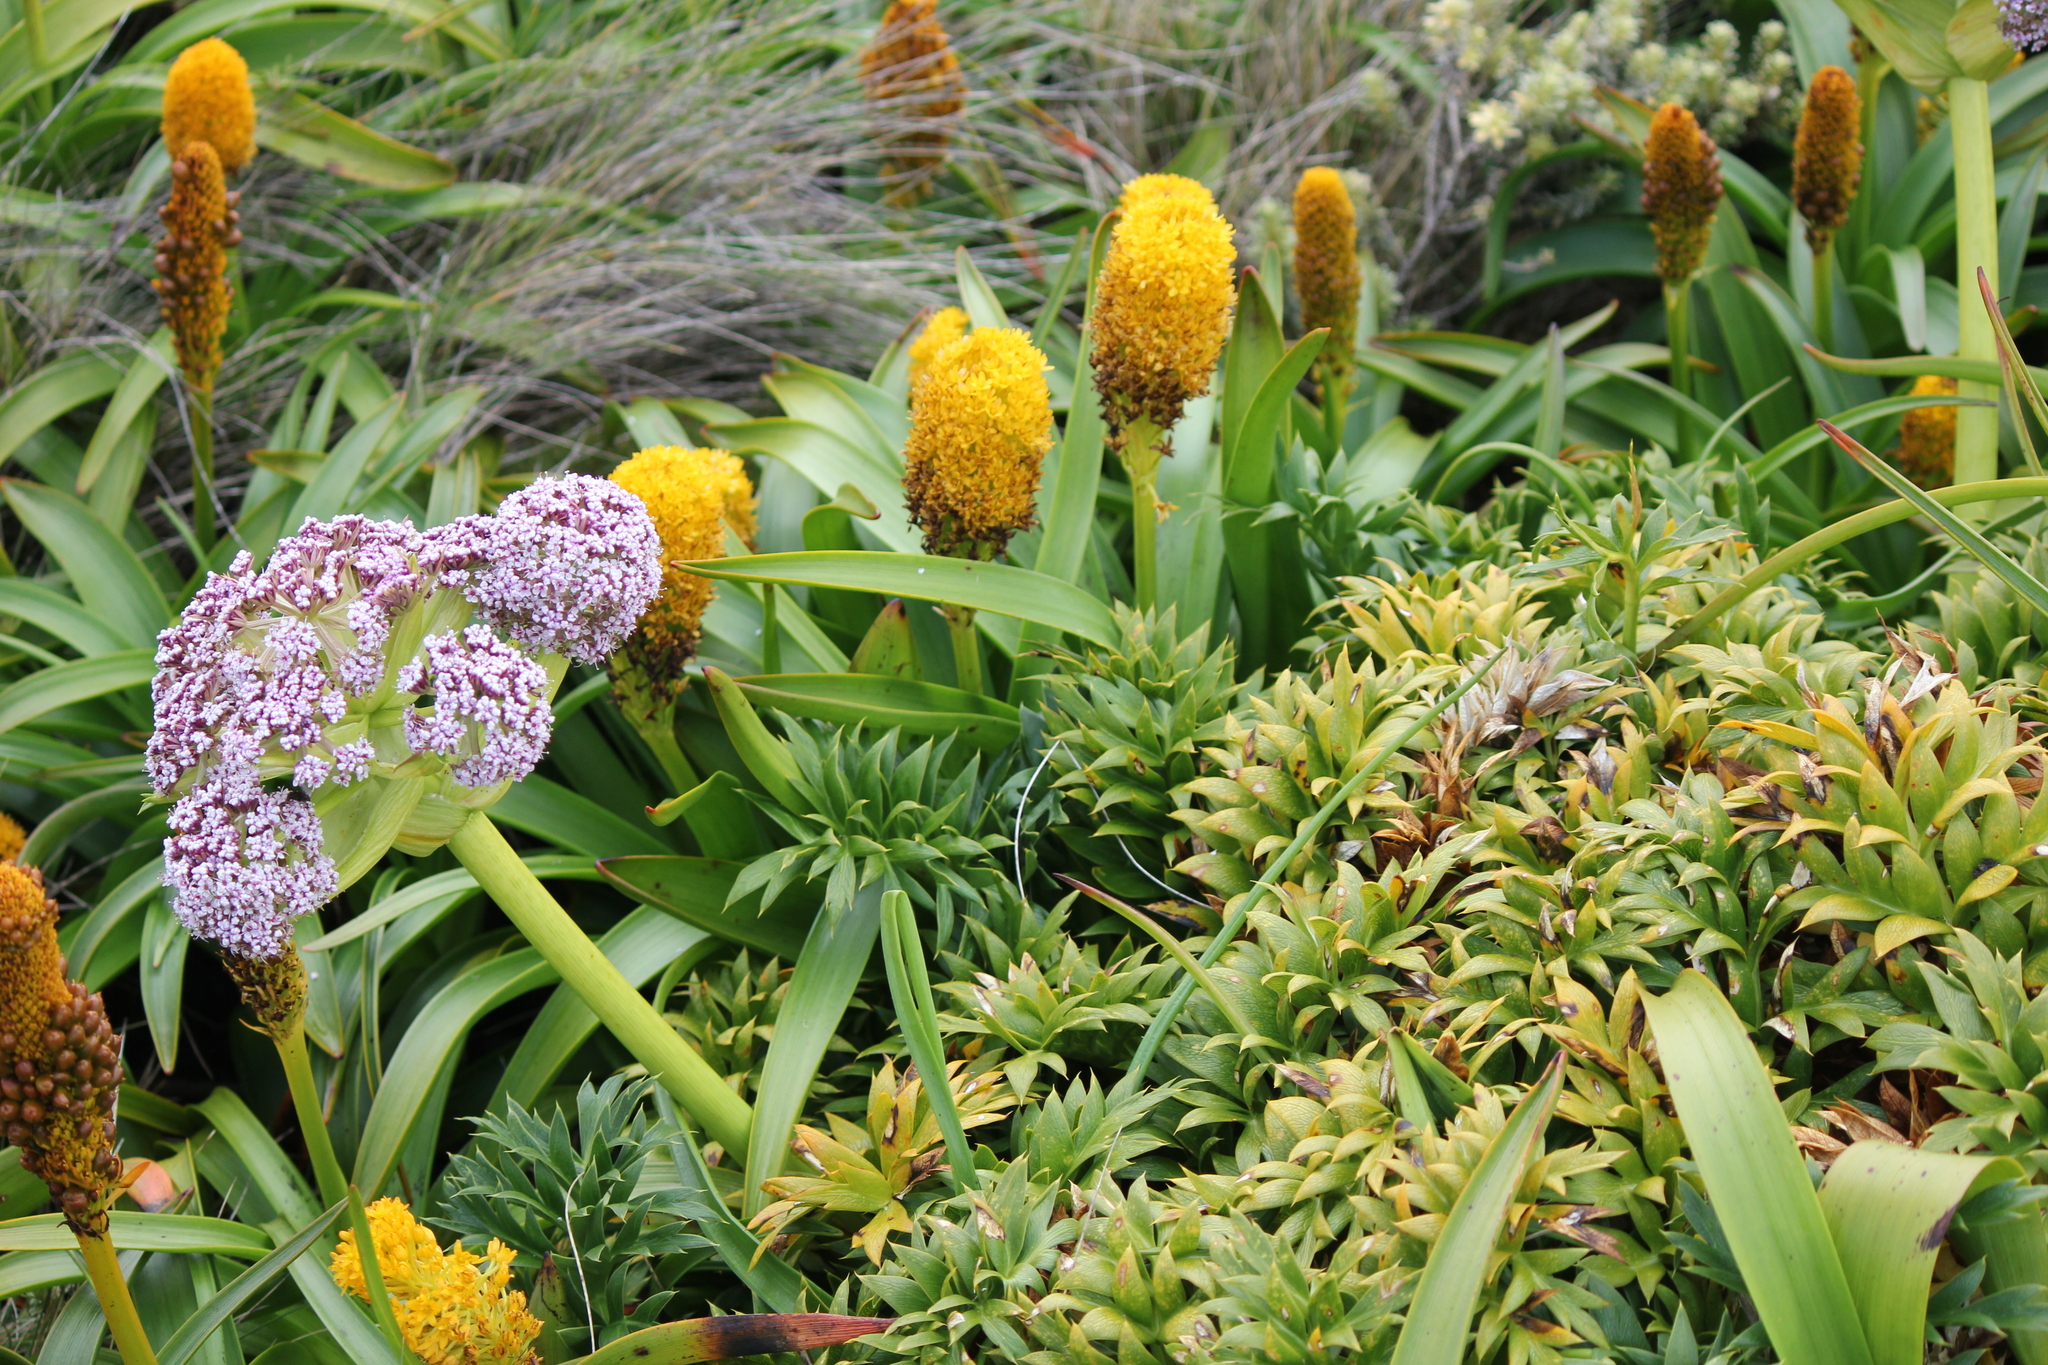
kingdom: Plantae
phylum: Tracheophyta
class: Magnoliopsida
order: Apiales
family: Apiaceae
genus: Anisotome
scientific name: Anisotome latifolia
